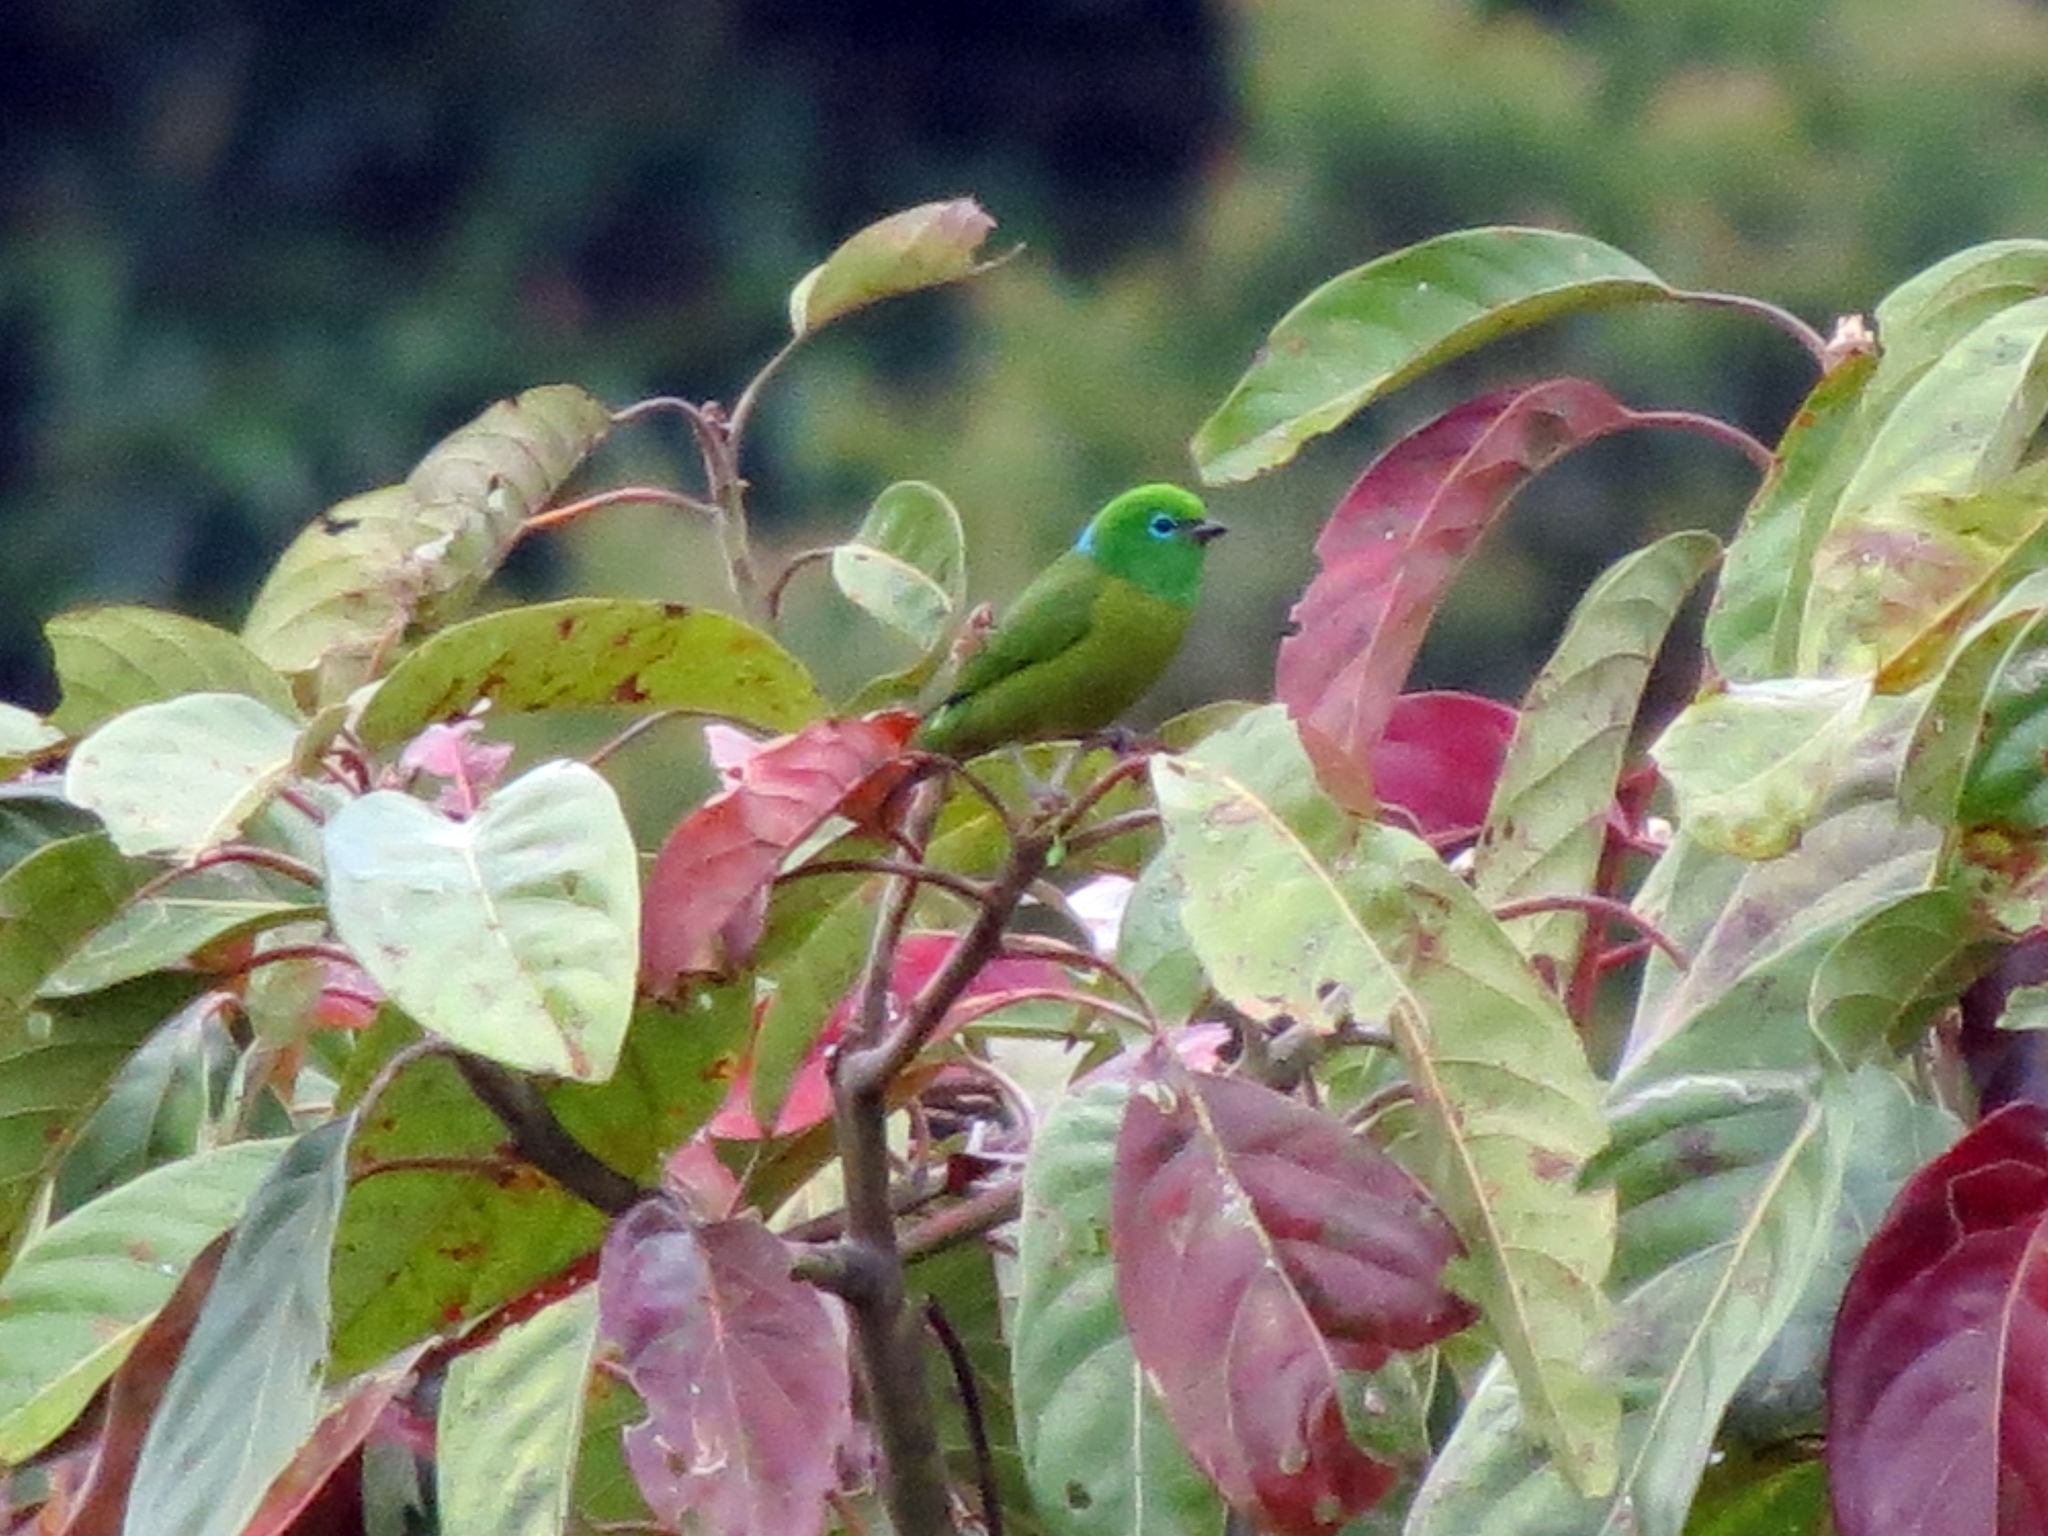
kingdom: Animalia
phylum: Chordata
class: Aves
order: Passeriformes
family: Fringillidae
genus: Chlorophonia
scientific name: Chlorophonia cyanea
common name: Blue-naped chlorophonia
